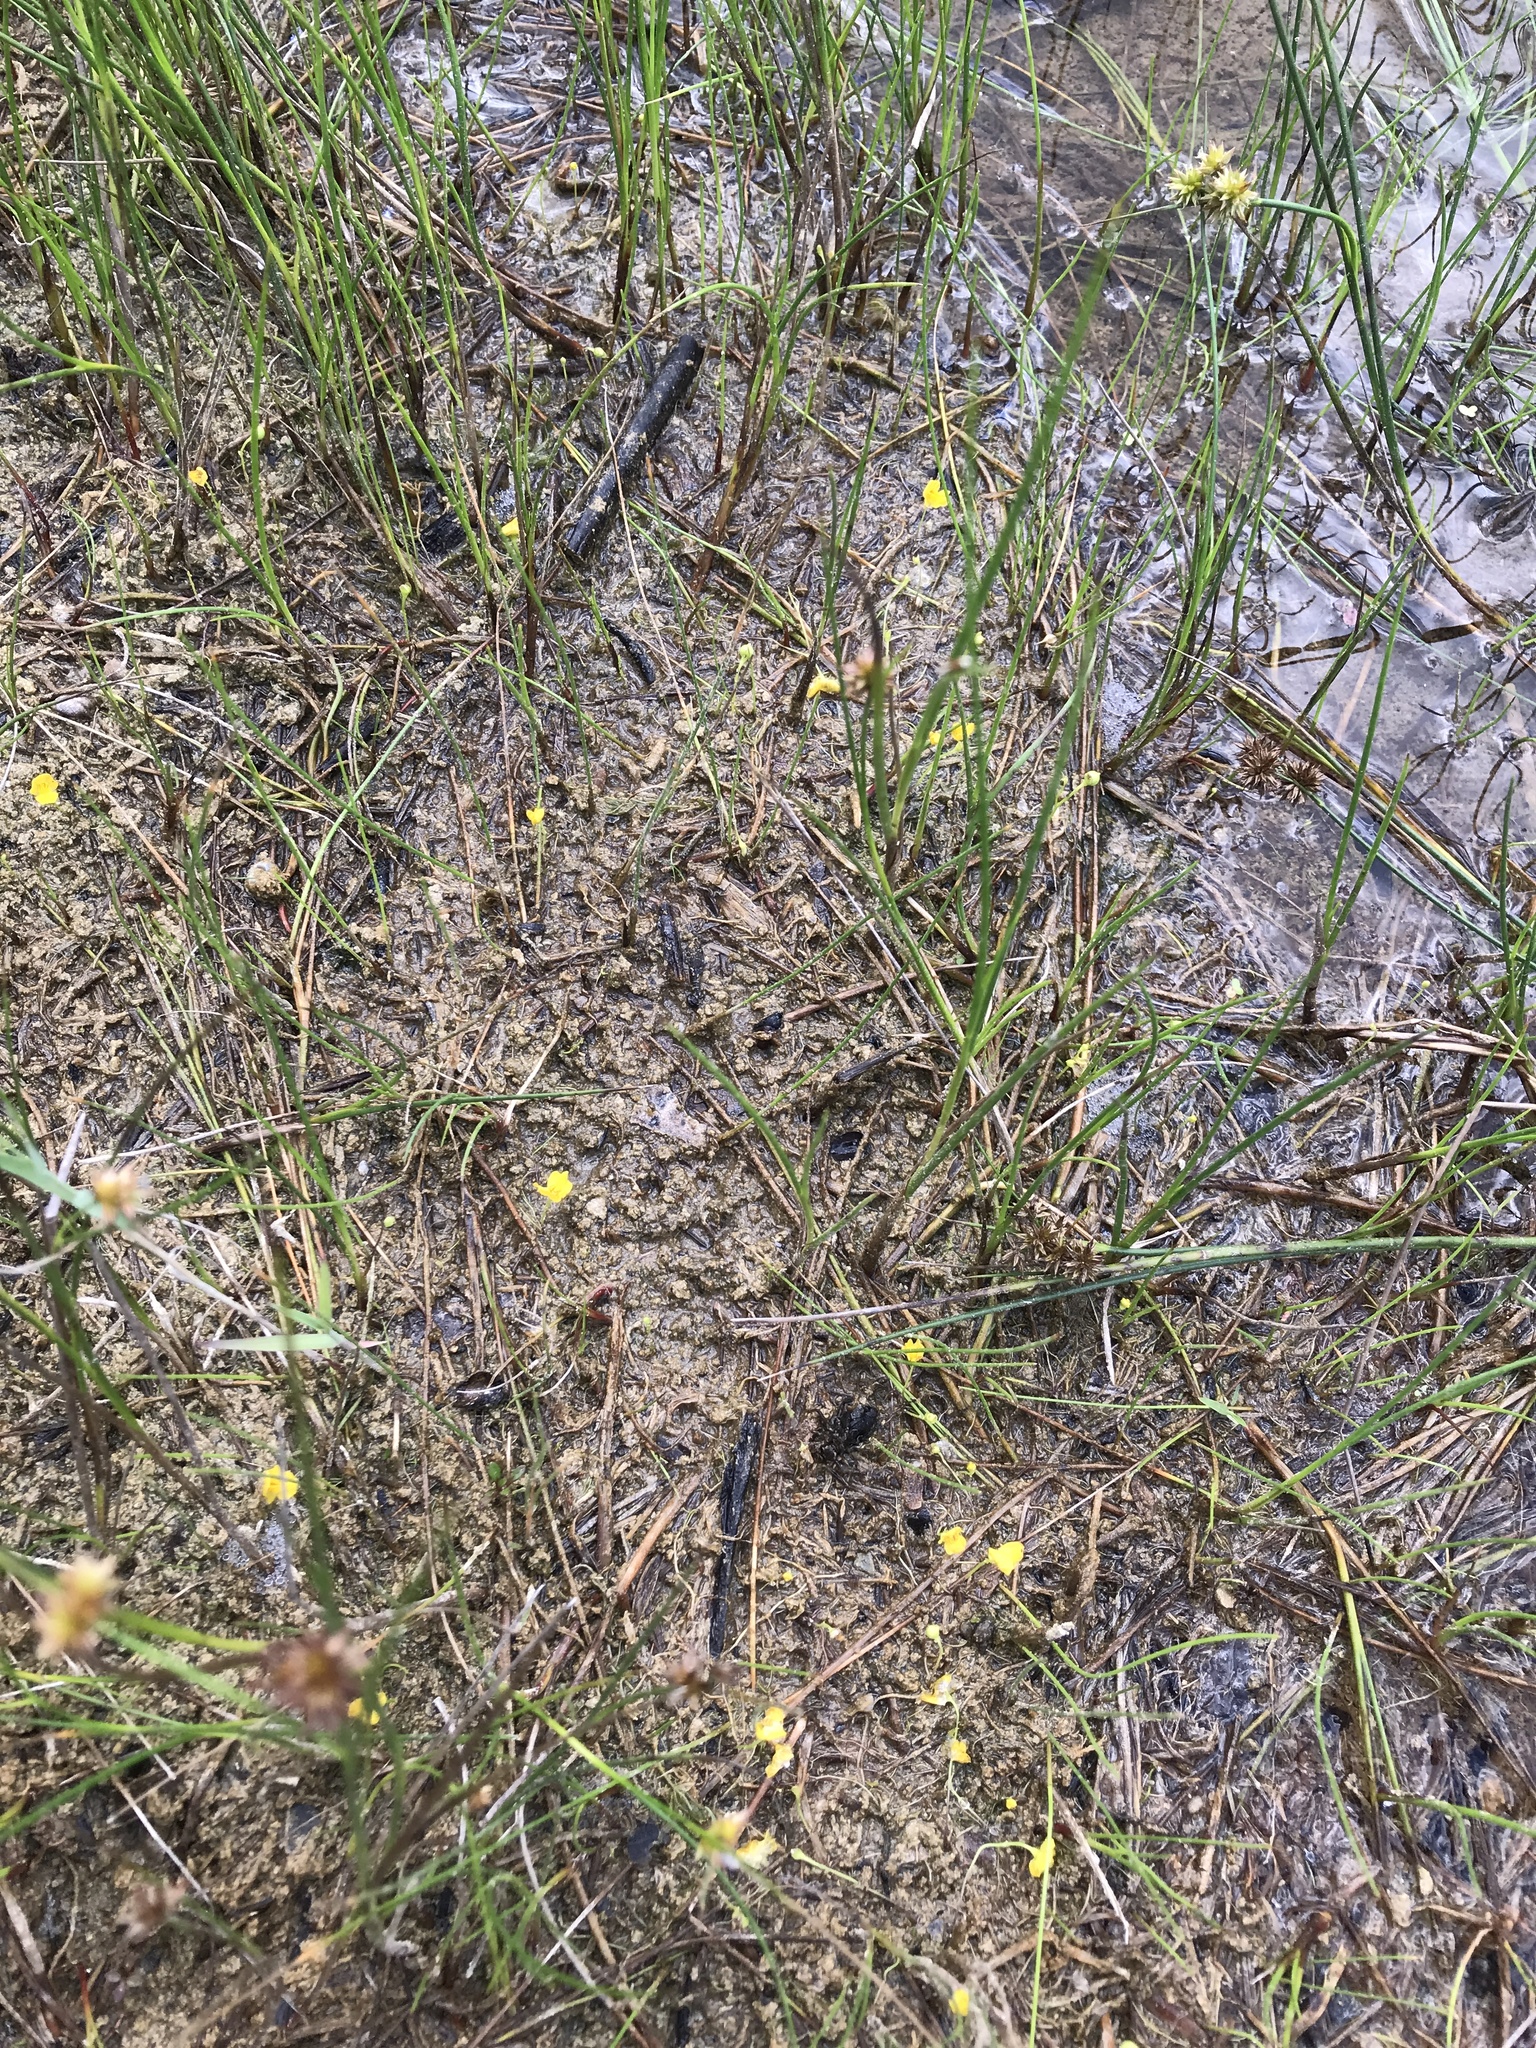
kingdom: Plantae
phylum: Tracheophyta
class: Magnoliopsida
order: Lamiales
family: Lentibulariaceae
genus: Utricularia
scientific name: Utricularia gibba
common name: Humped bladderwort
